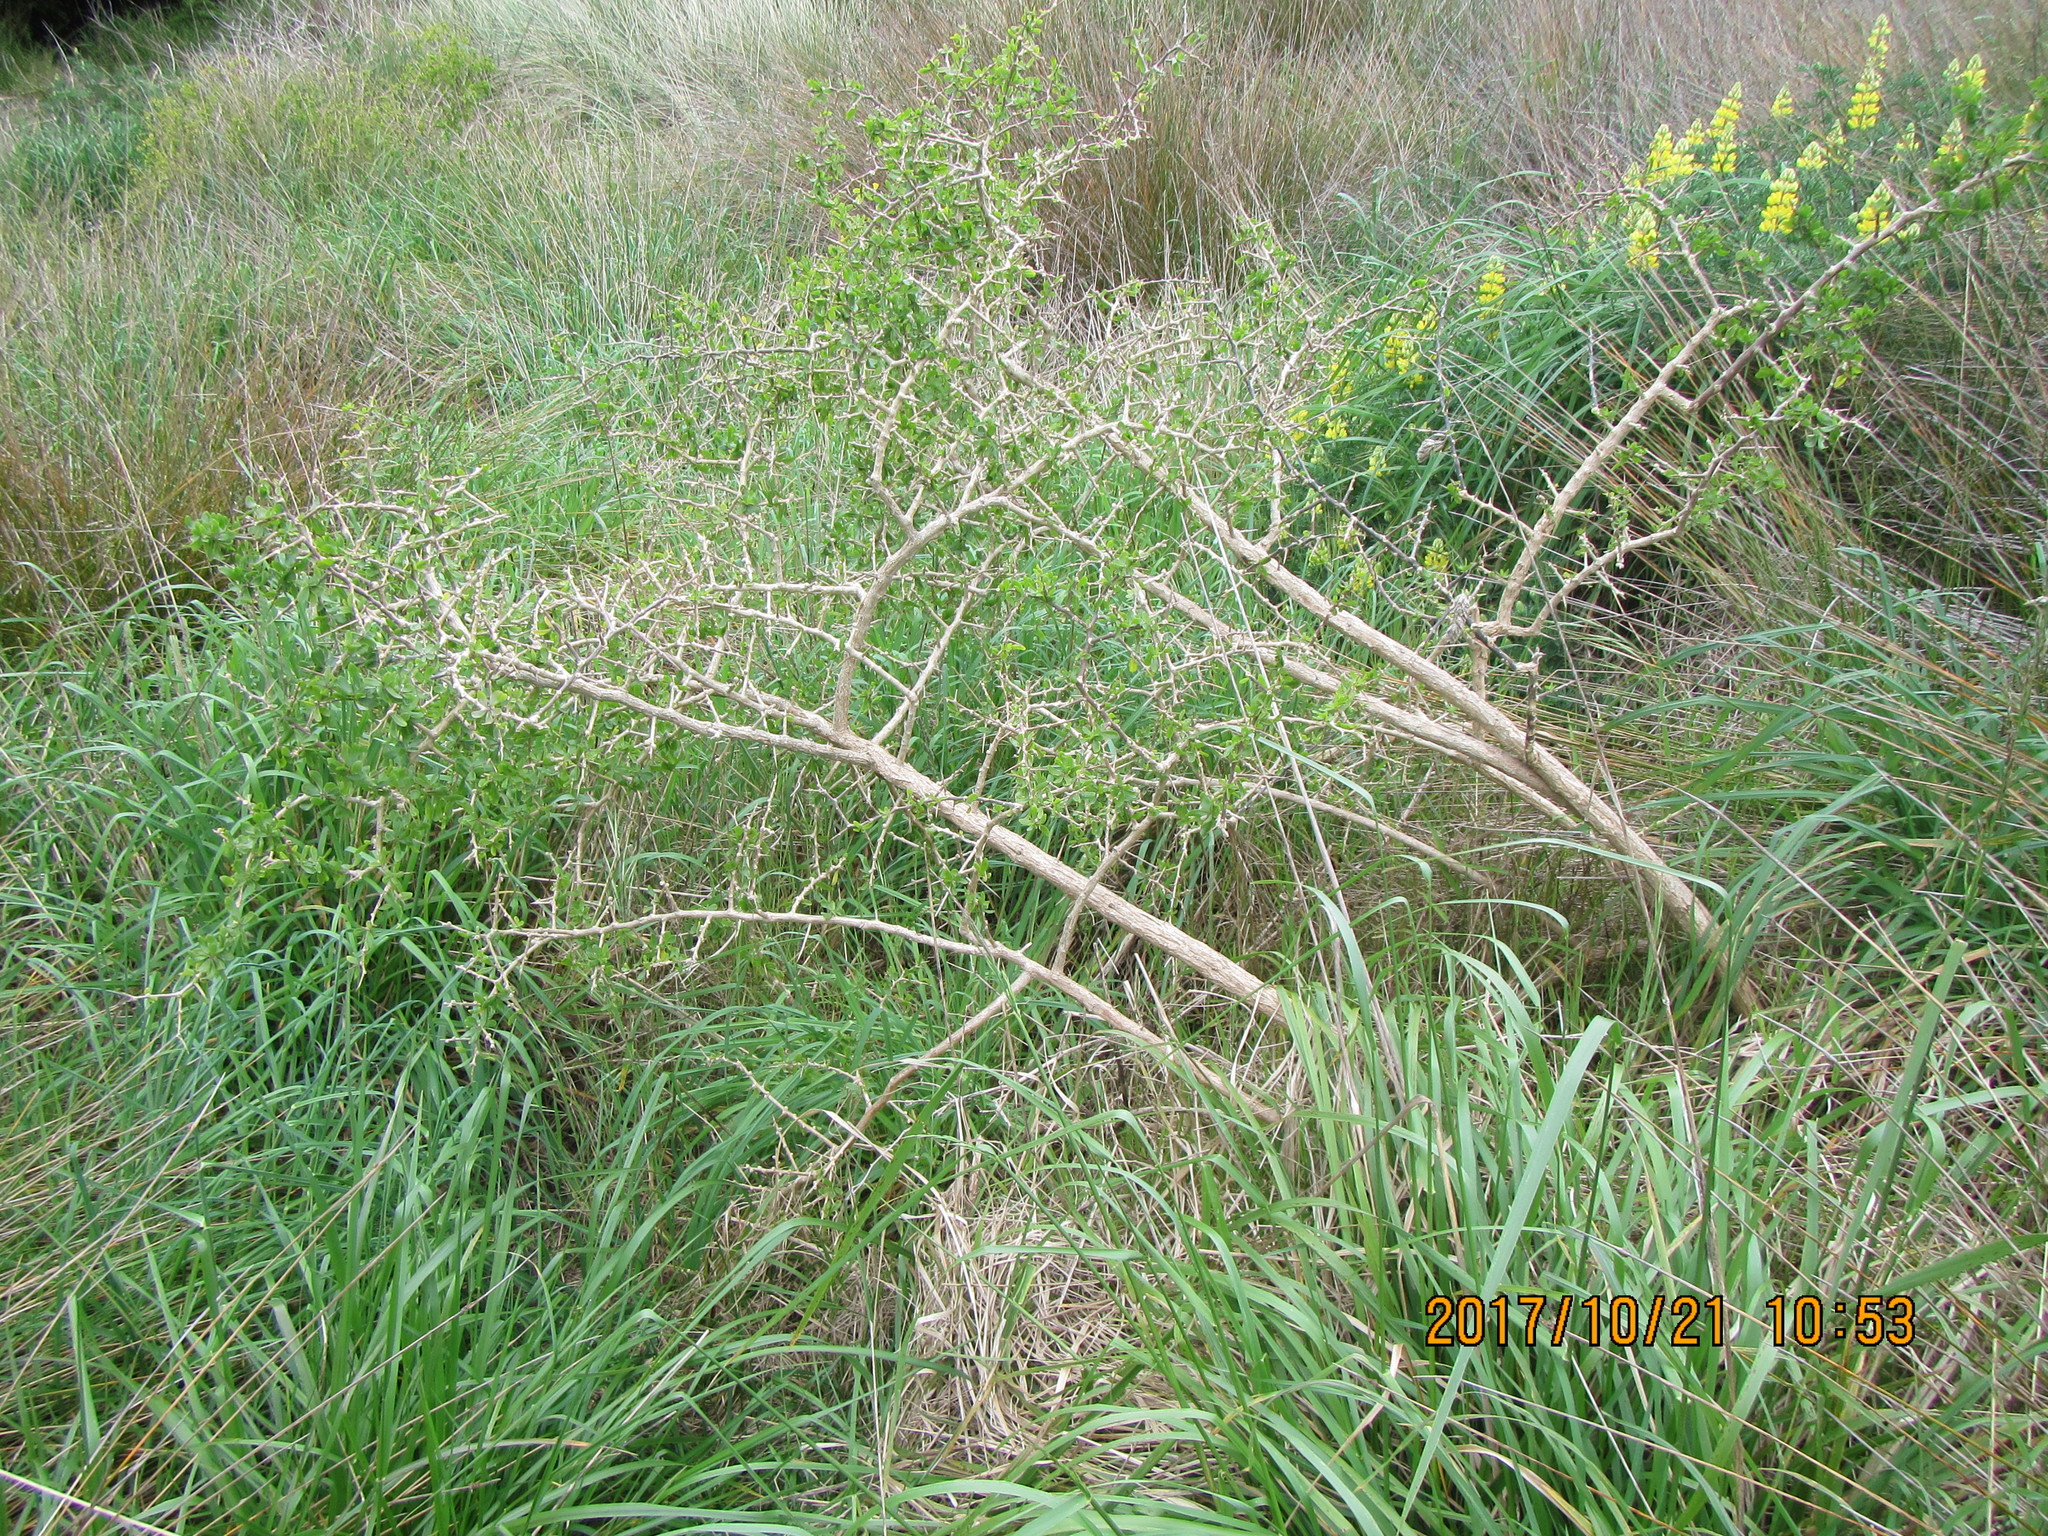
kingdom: Plantae
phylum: Tracheophyta
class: Magnoliopsida
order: Solanales
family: Solanaceae
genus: Lycium
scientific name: Lycium ferocissimum
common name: African boxthorn
